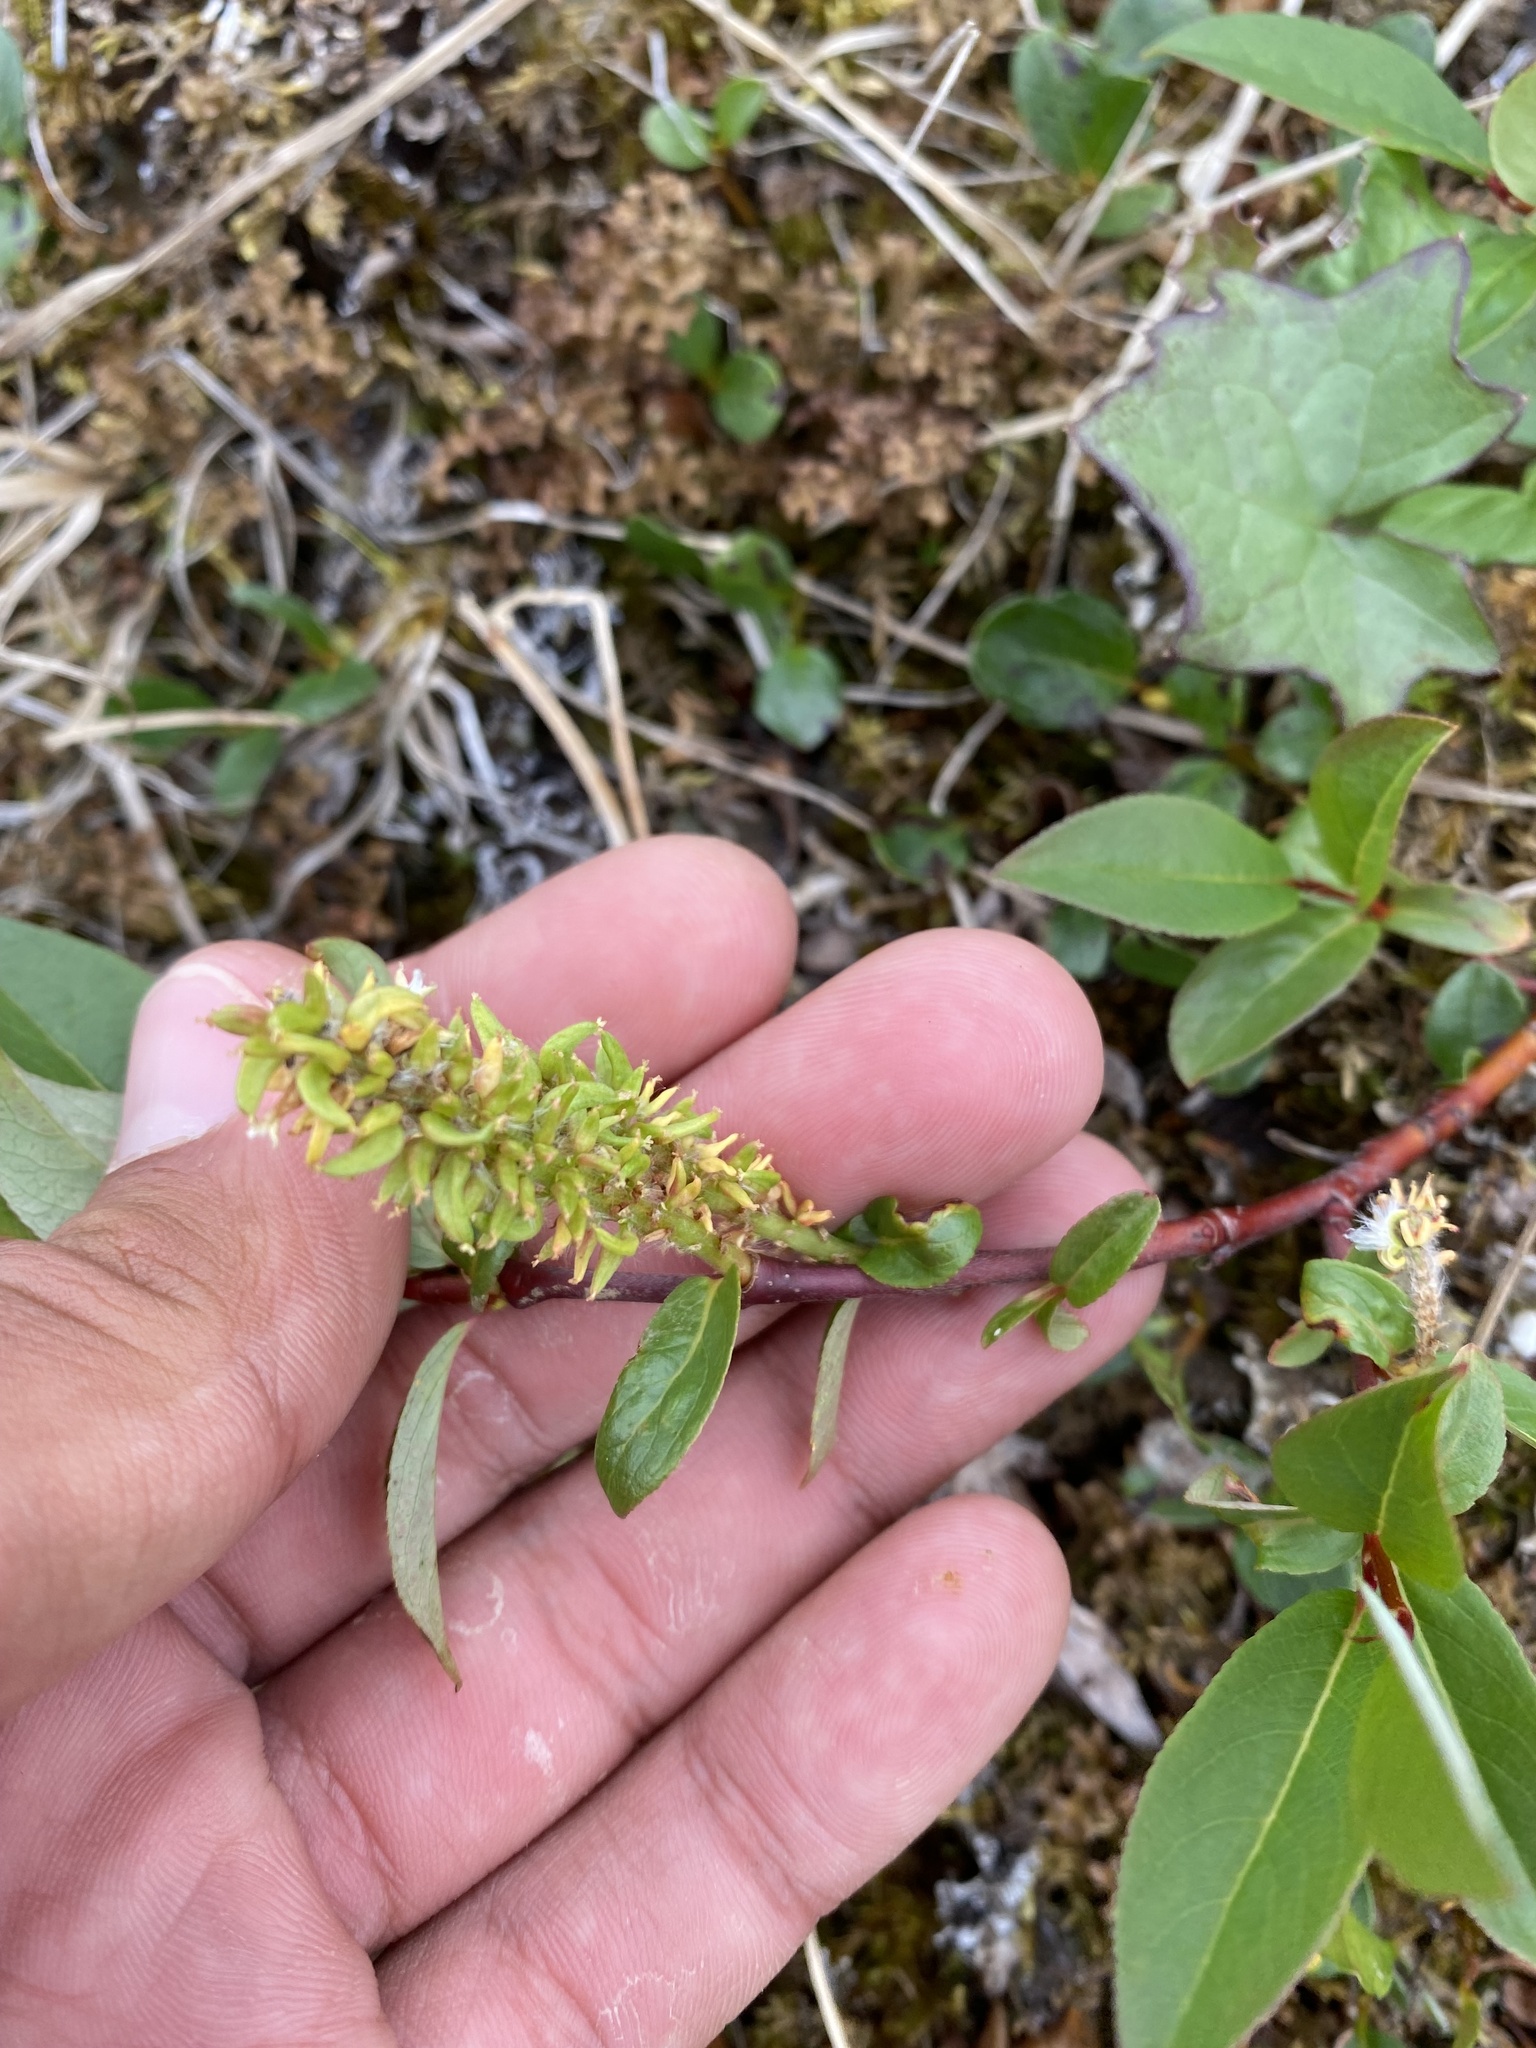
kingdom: Plantae
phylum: Tracheophyta
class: Magnoliopsida
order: Malpighiales
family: Salicaceae
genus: Salix
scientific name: Salix pulchra
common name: Diamond-leaved willow
